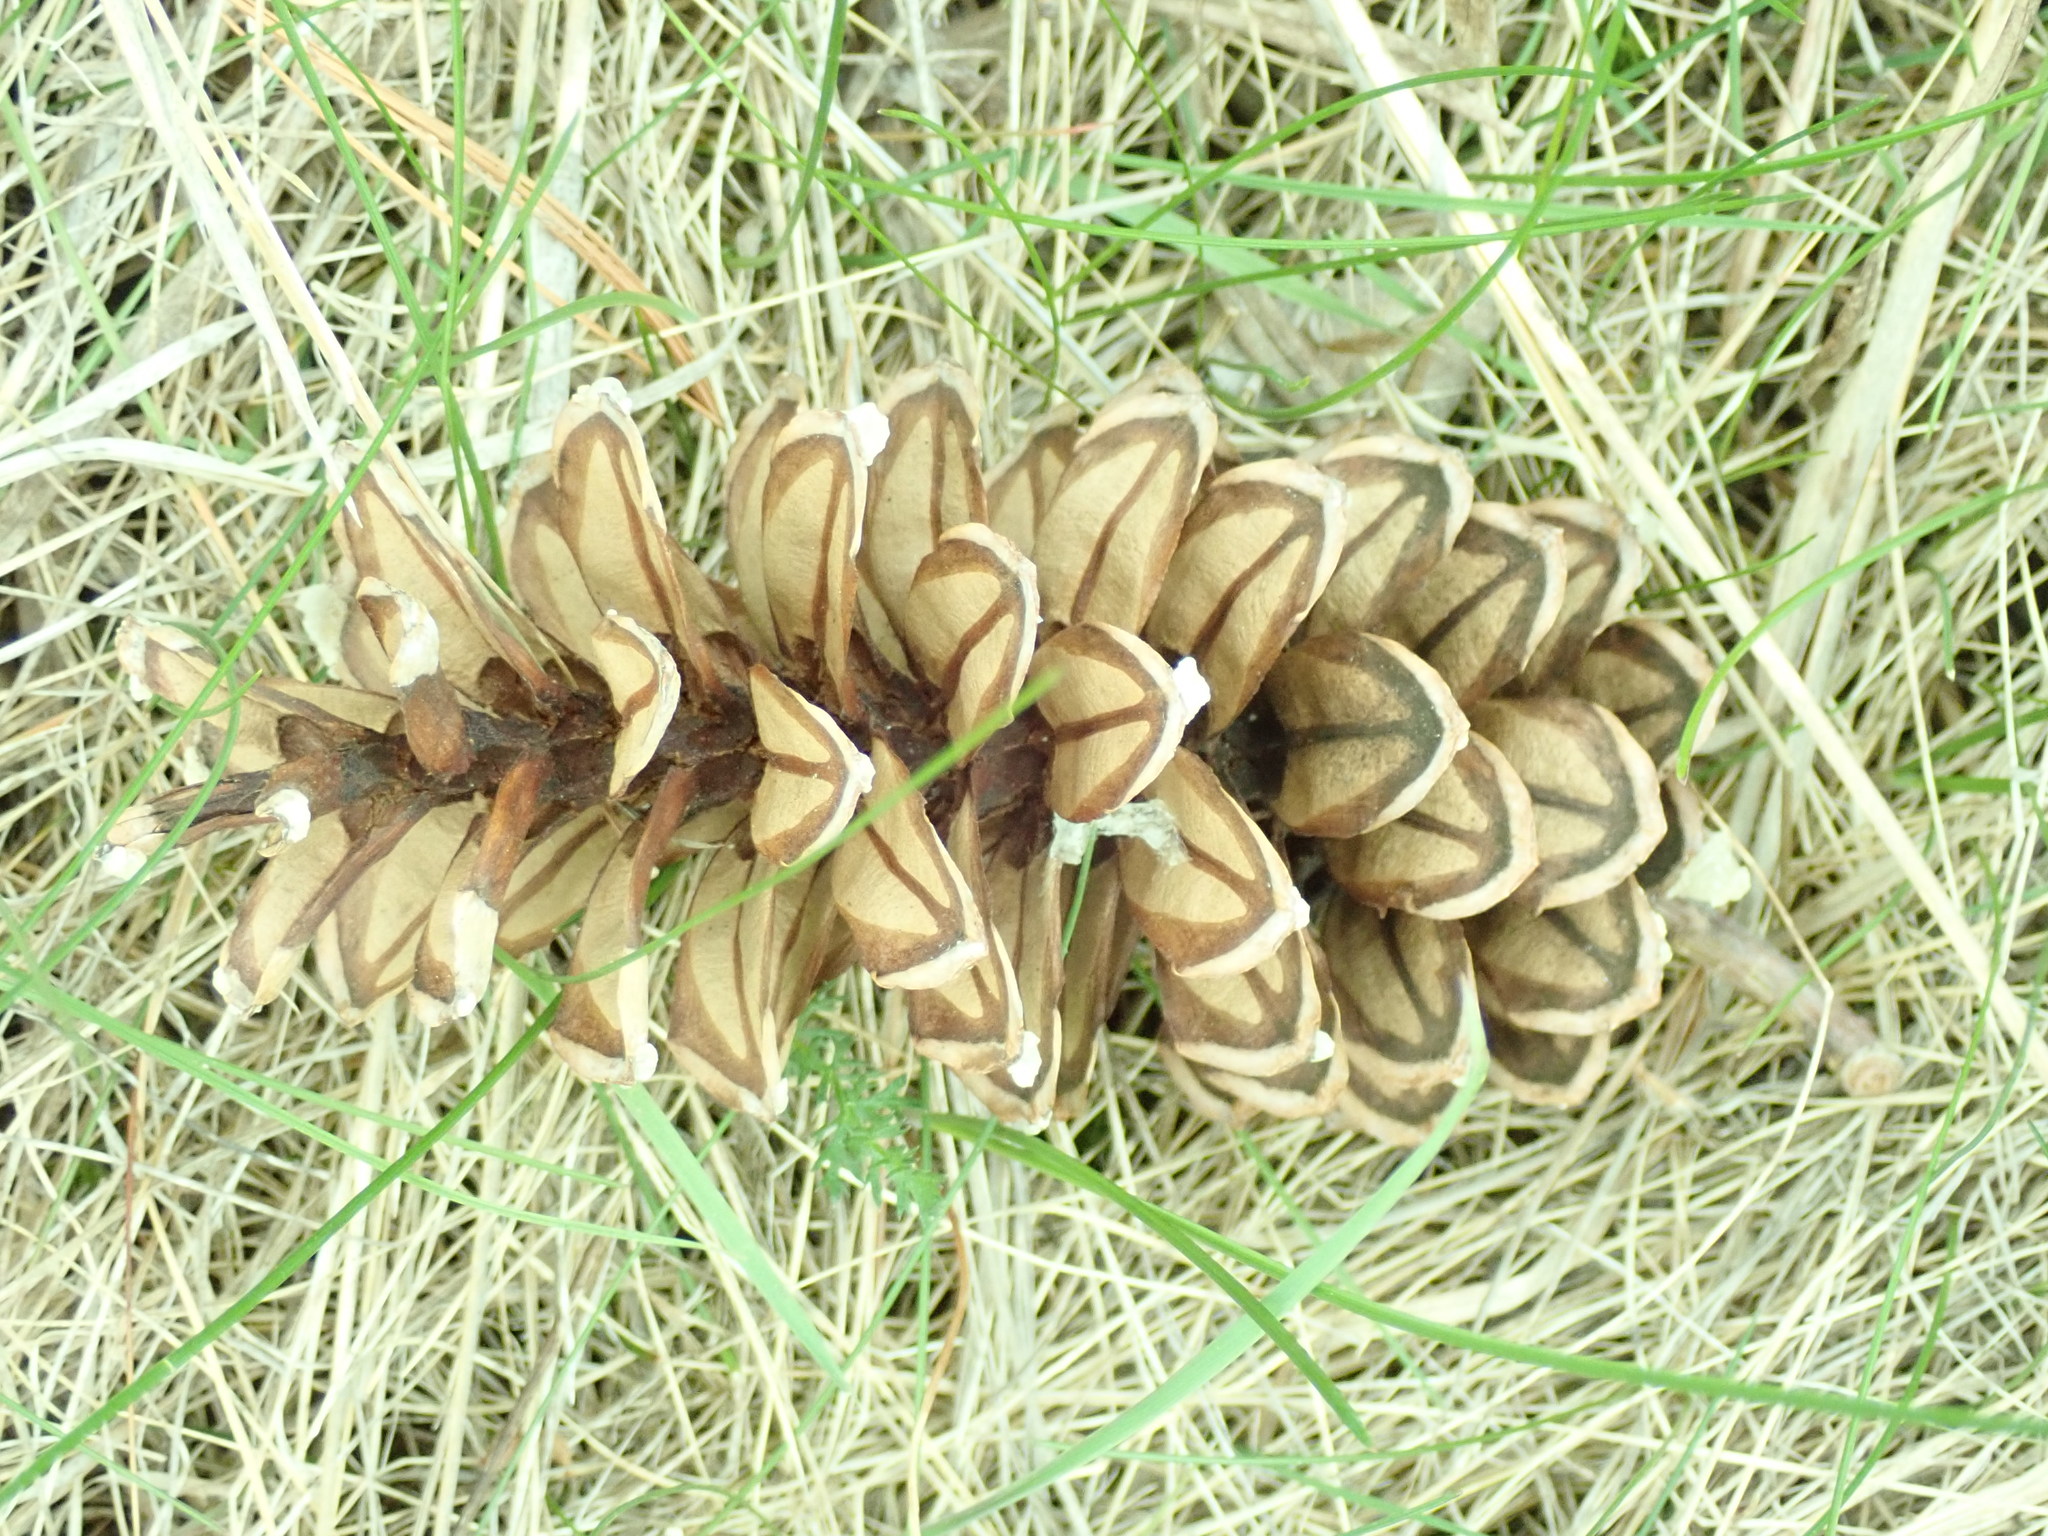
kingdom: Plantae
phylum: Tracheophyta
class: Pinopsida
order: Pinales
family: Pinaceae
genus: Pinus
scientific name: Pinus strobus
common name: Weymouth pine
